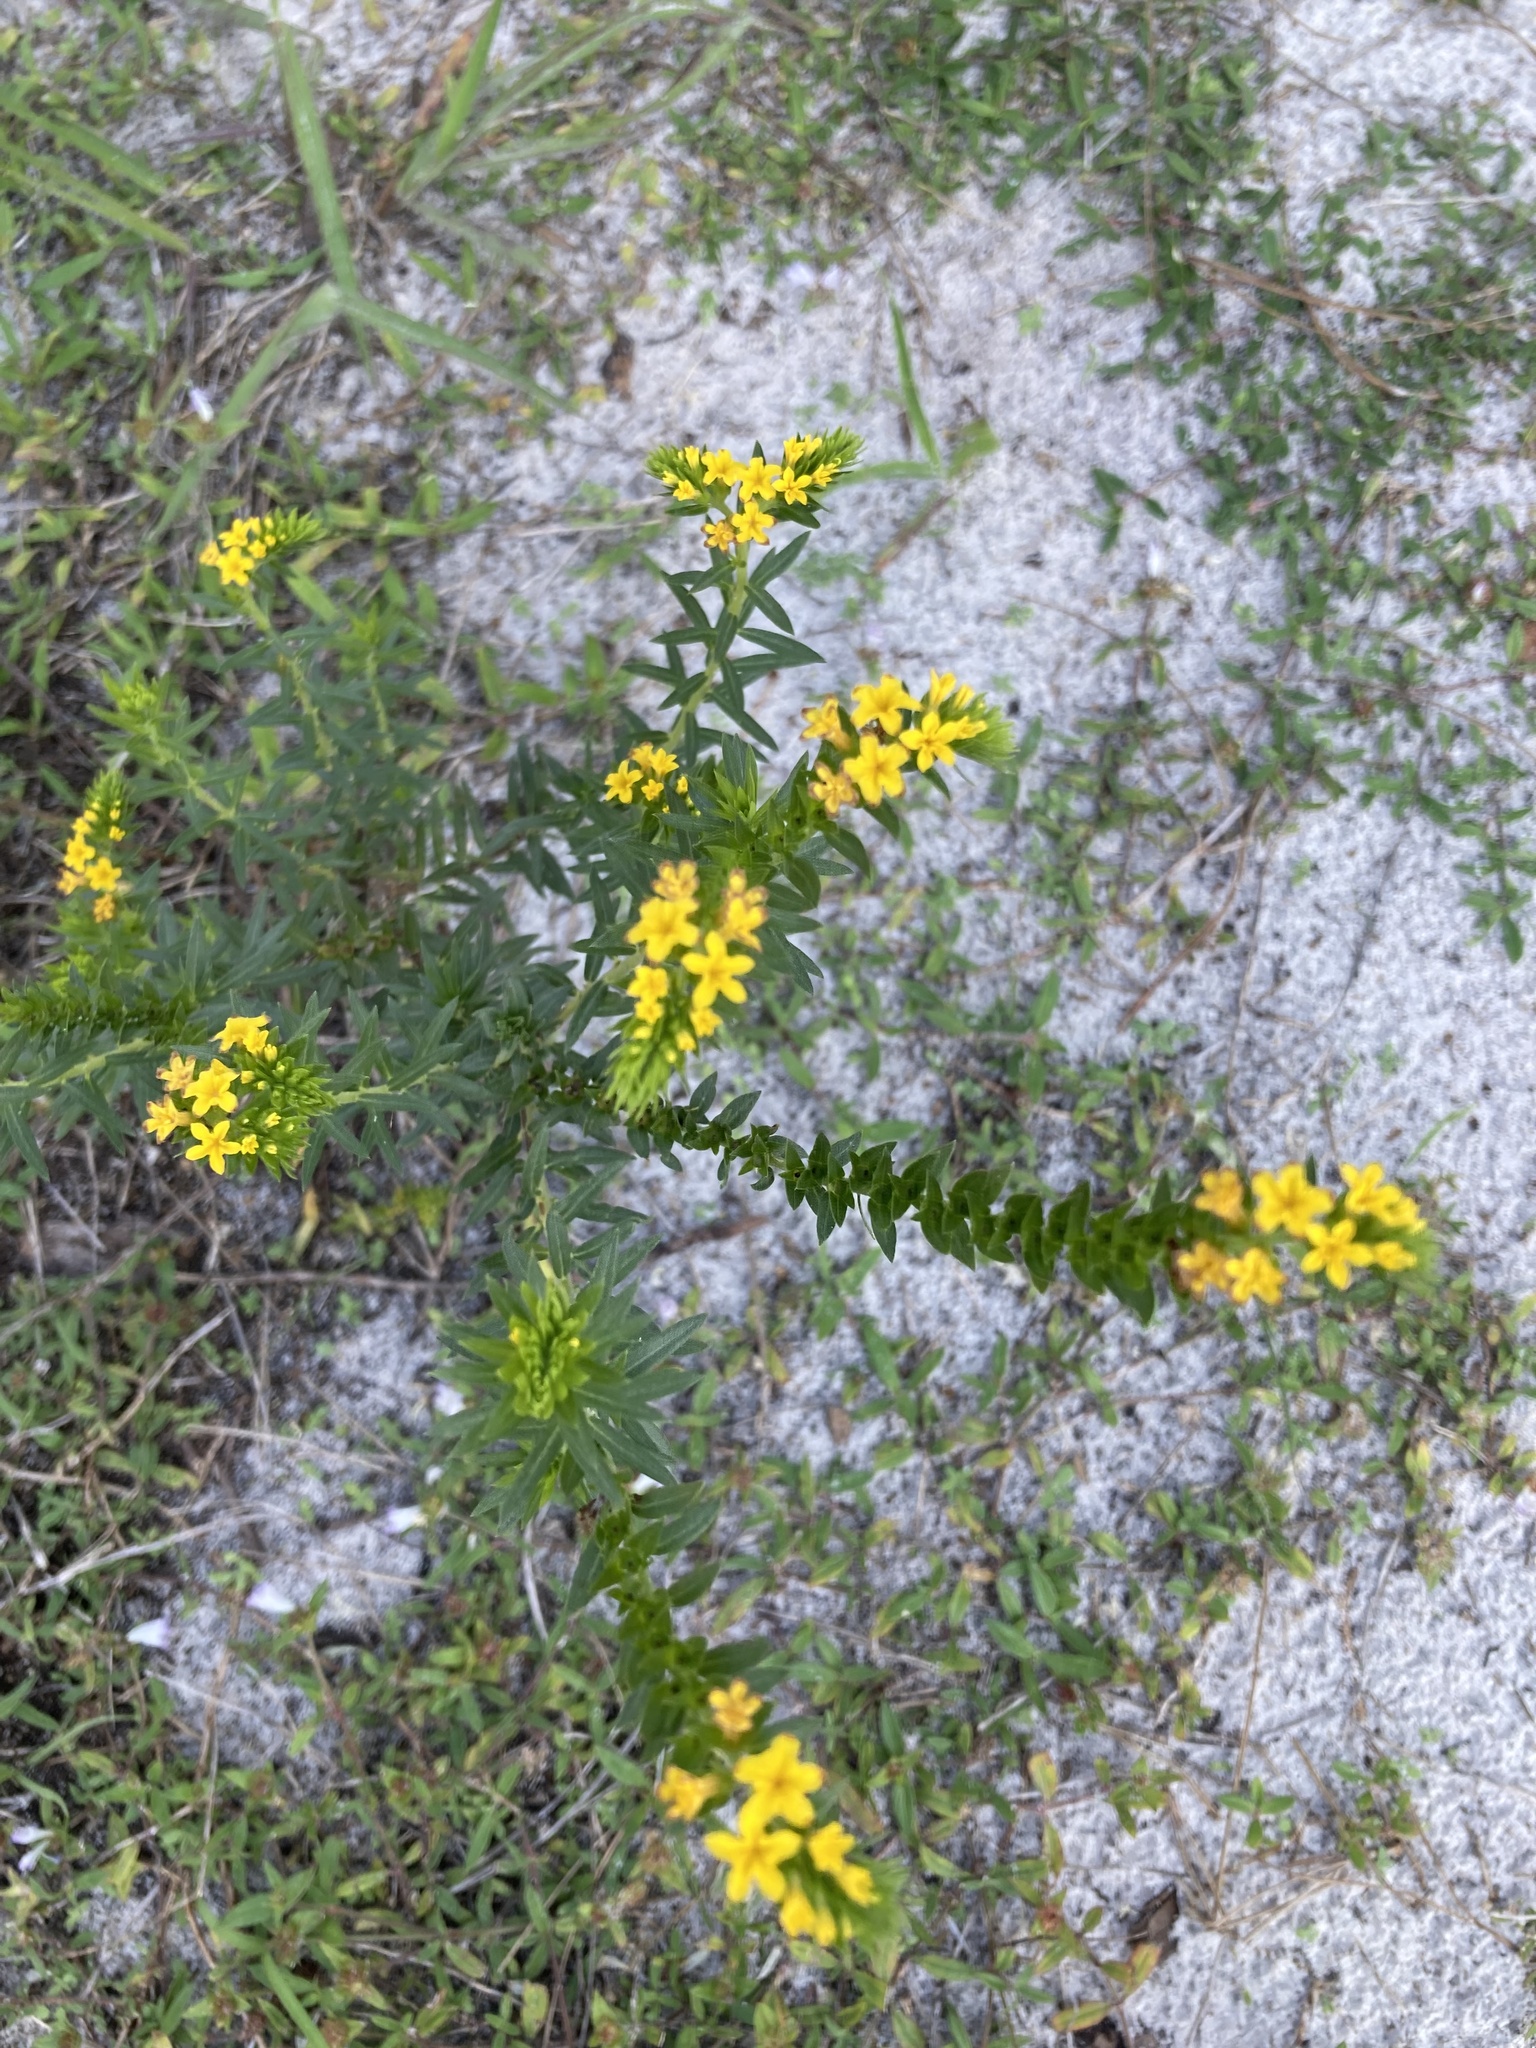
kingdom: Plantae
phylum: Tracheophyta
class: Magnoliopsida
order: Boraginales
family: Heliotropiaceae
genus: Euploca
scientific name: Euploca polyphylla
